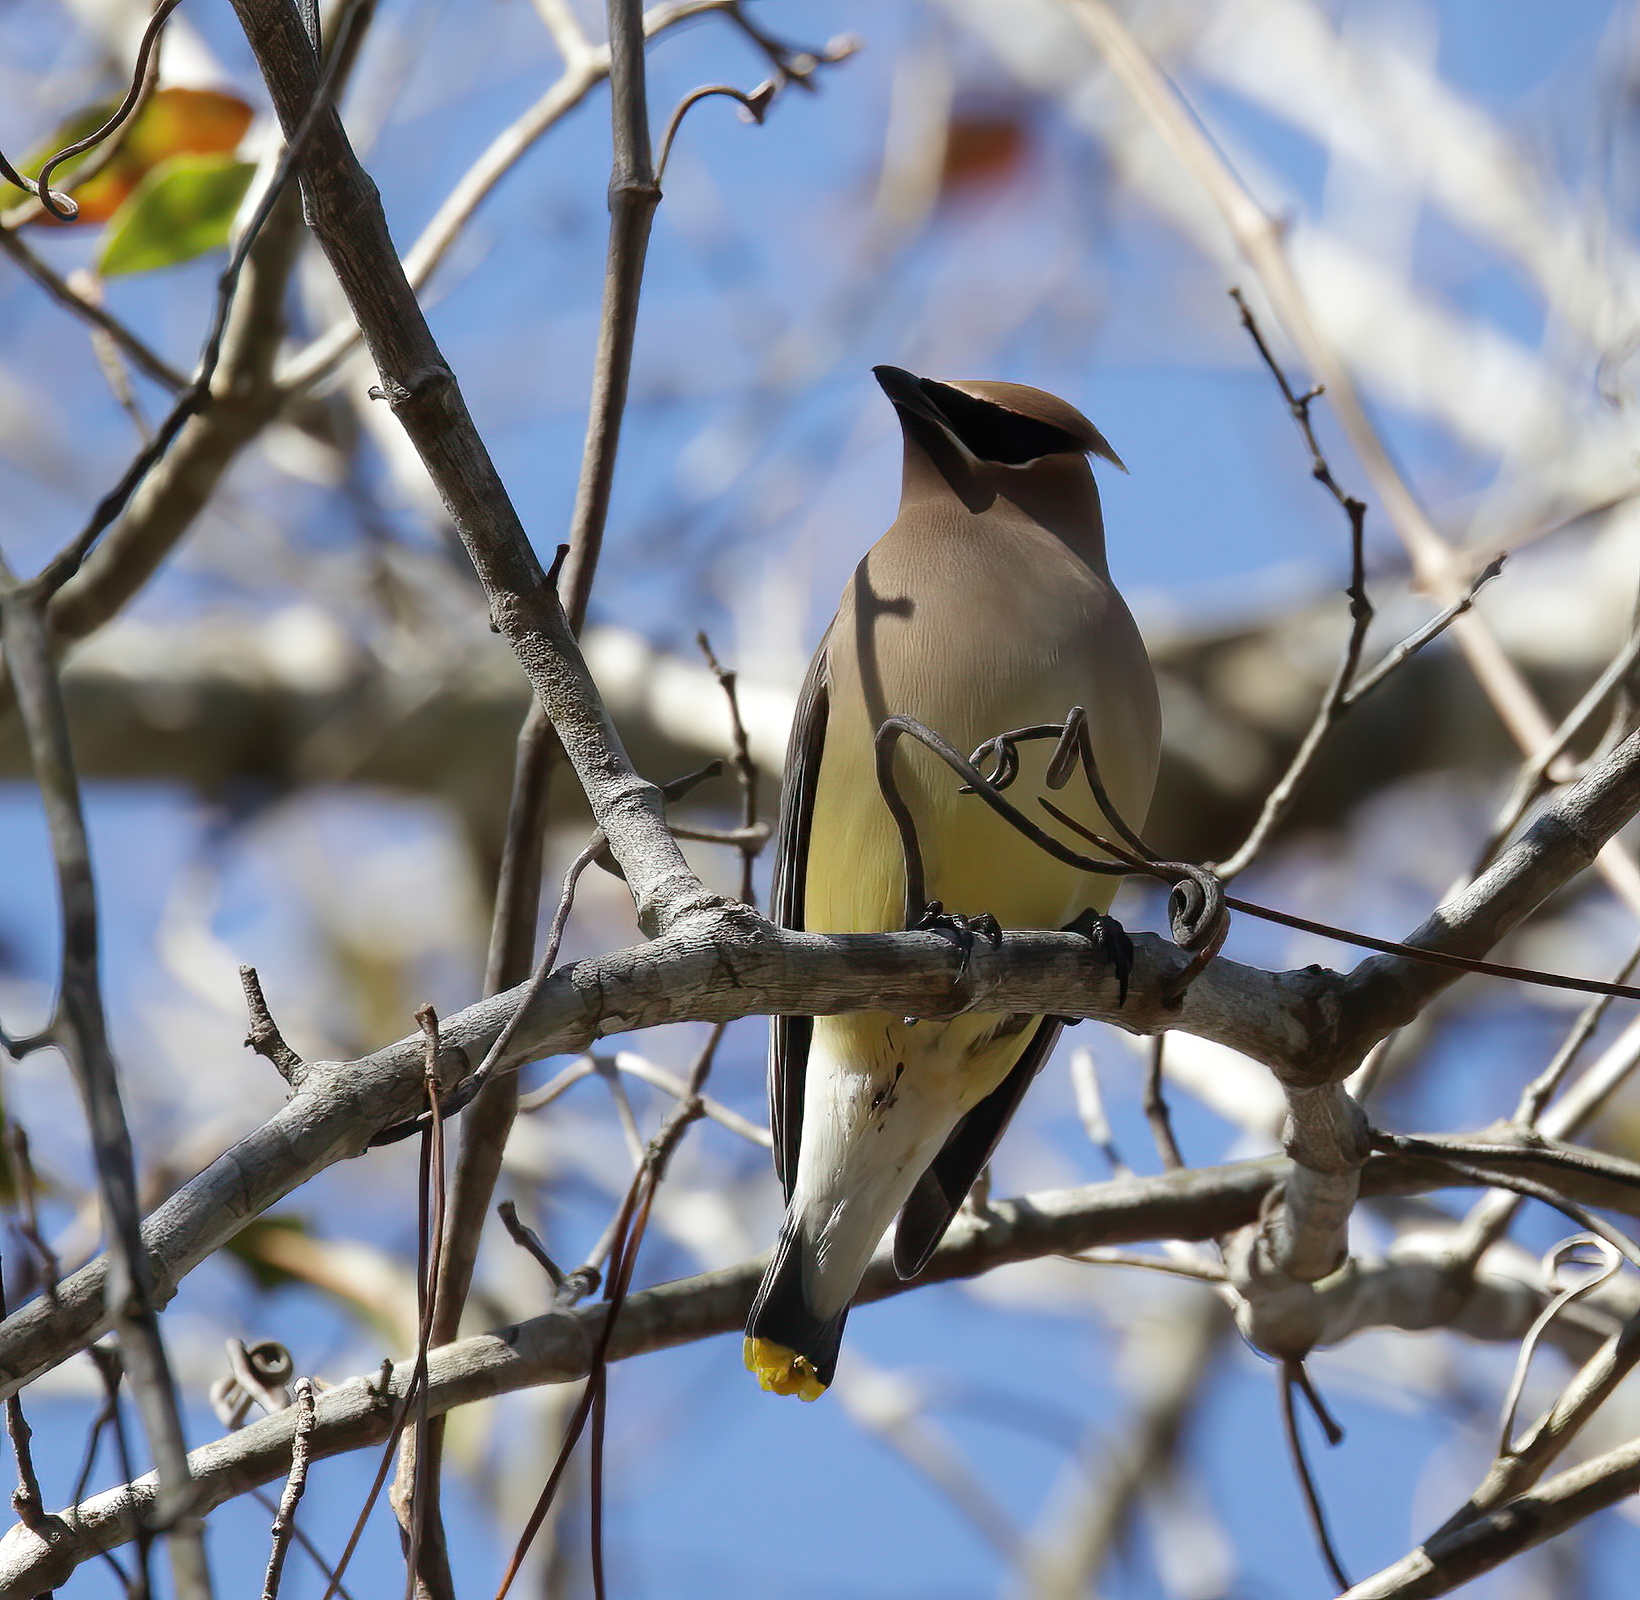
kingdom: Animalia
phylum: Chordata
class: Aves
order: Passeriformes
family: Bombycillidae
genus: Bombycilla
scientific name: Bombycilla cedrorum
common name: Cedar waxwing
